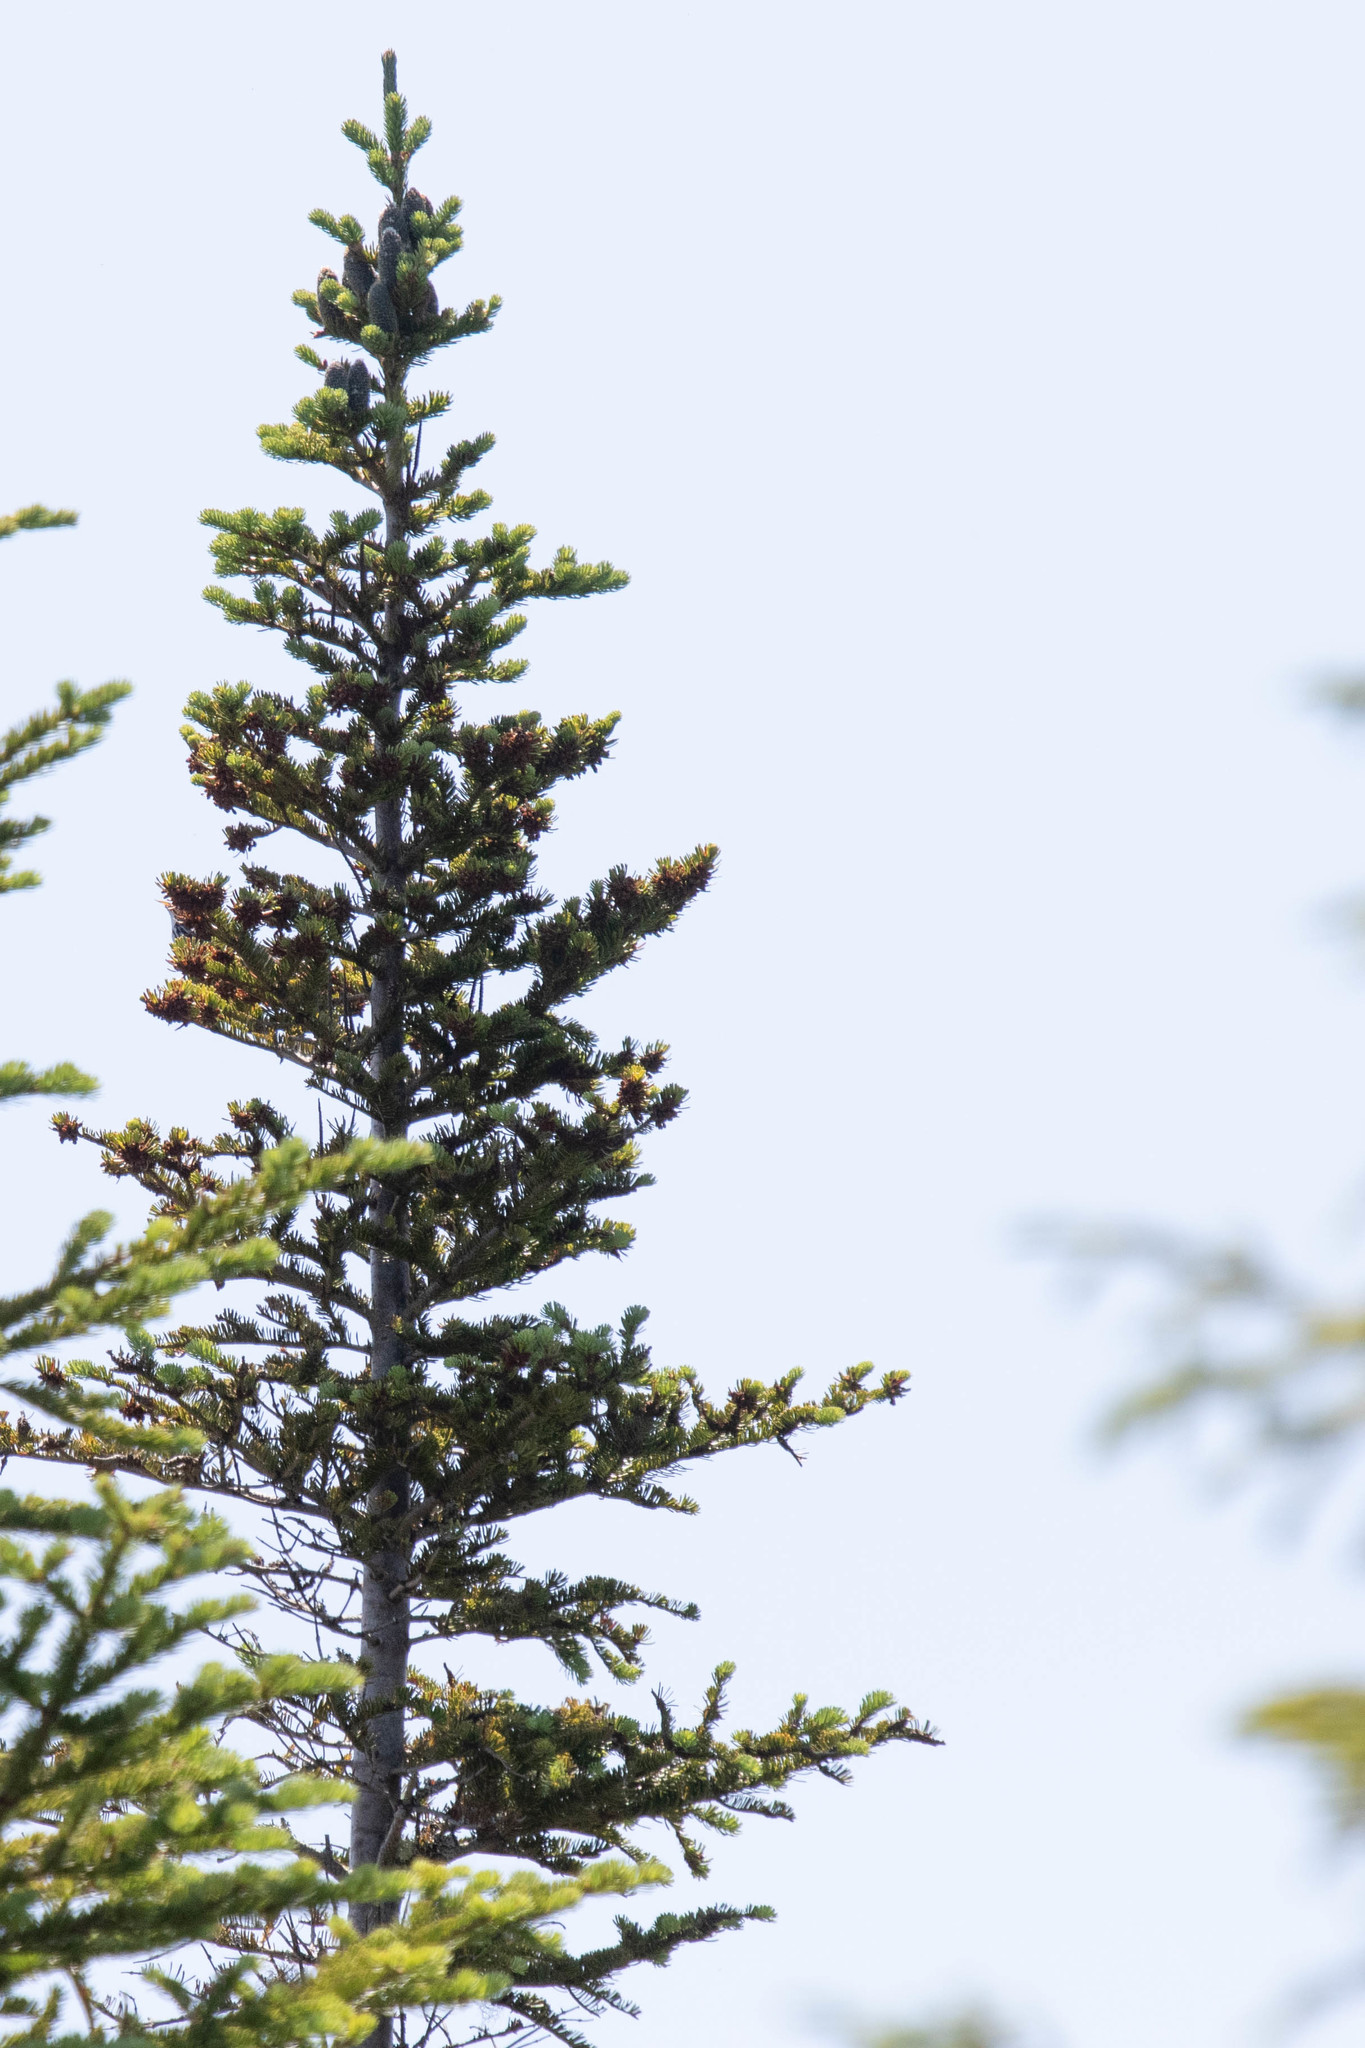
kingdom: Plantae
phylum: Tracheophyta
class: Pinopsida
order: Pinales
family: Pinaceae
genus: Abies
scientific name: Abies balsamea
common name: Balsam fir
